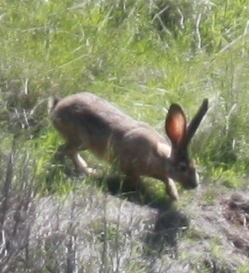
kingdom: Animalia
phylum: Chordata
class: Mammalia
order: Lagomorpha
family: Leporidae
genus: Lepus
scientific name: Lepus californicus
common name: Black-tailed jackrabbit
